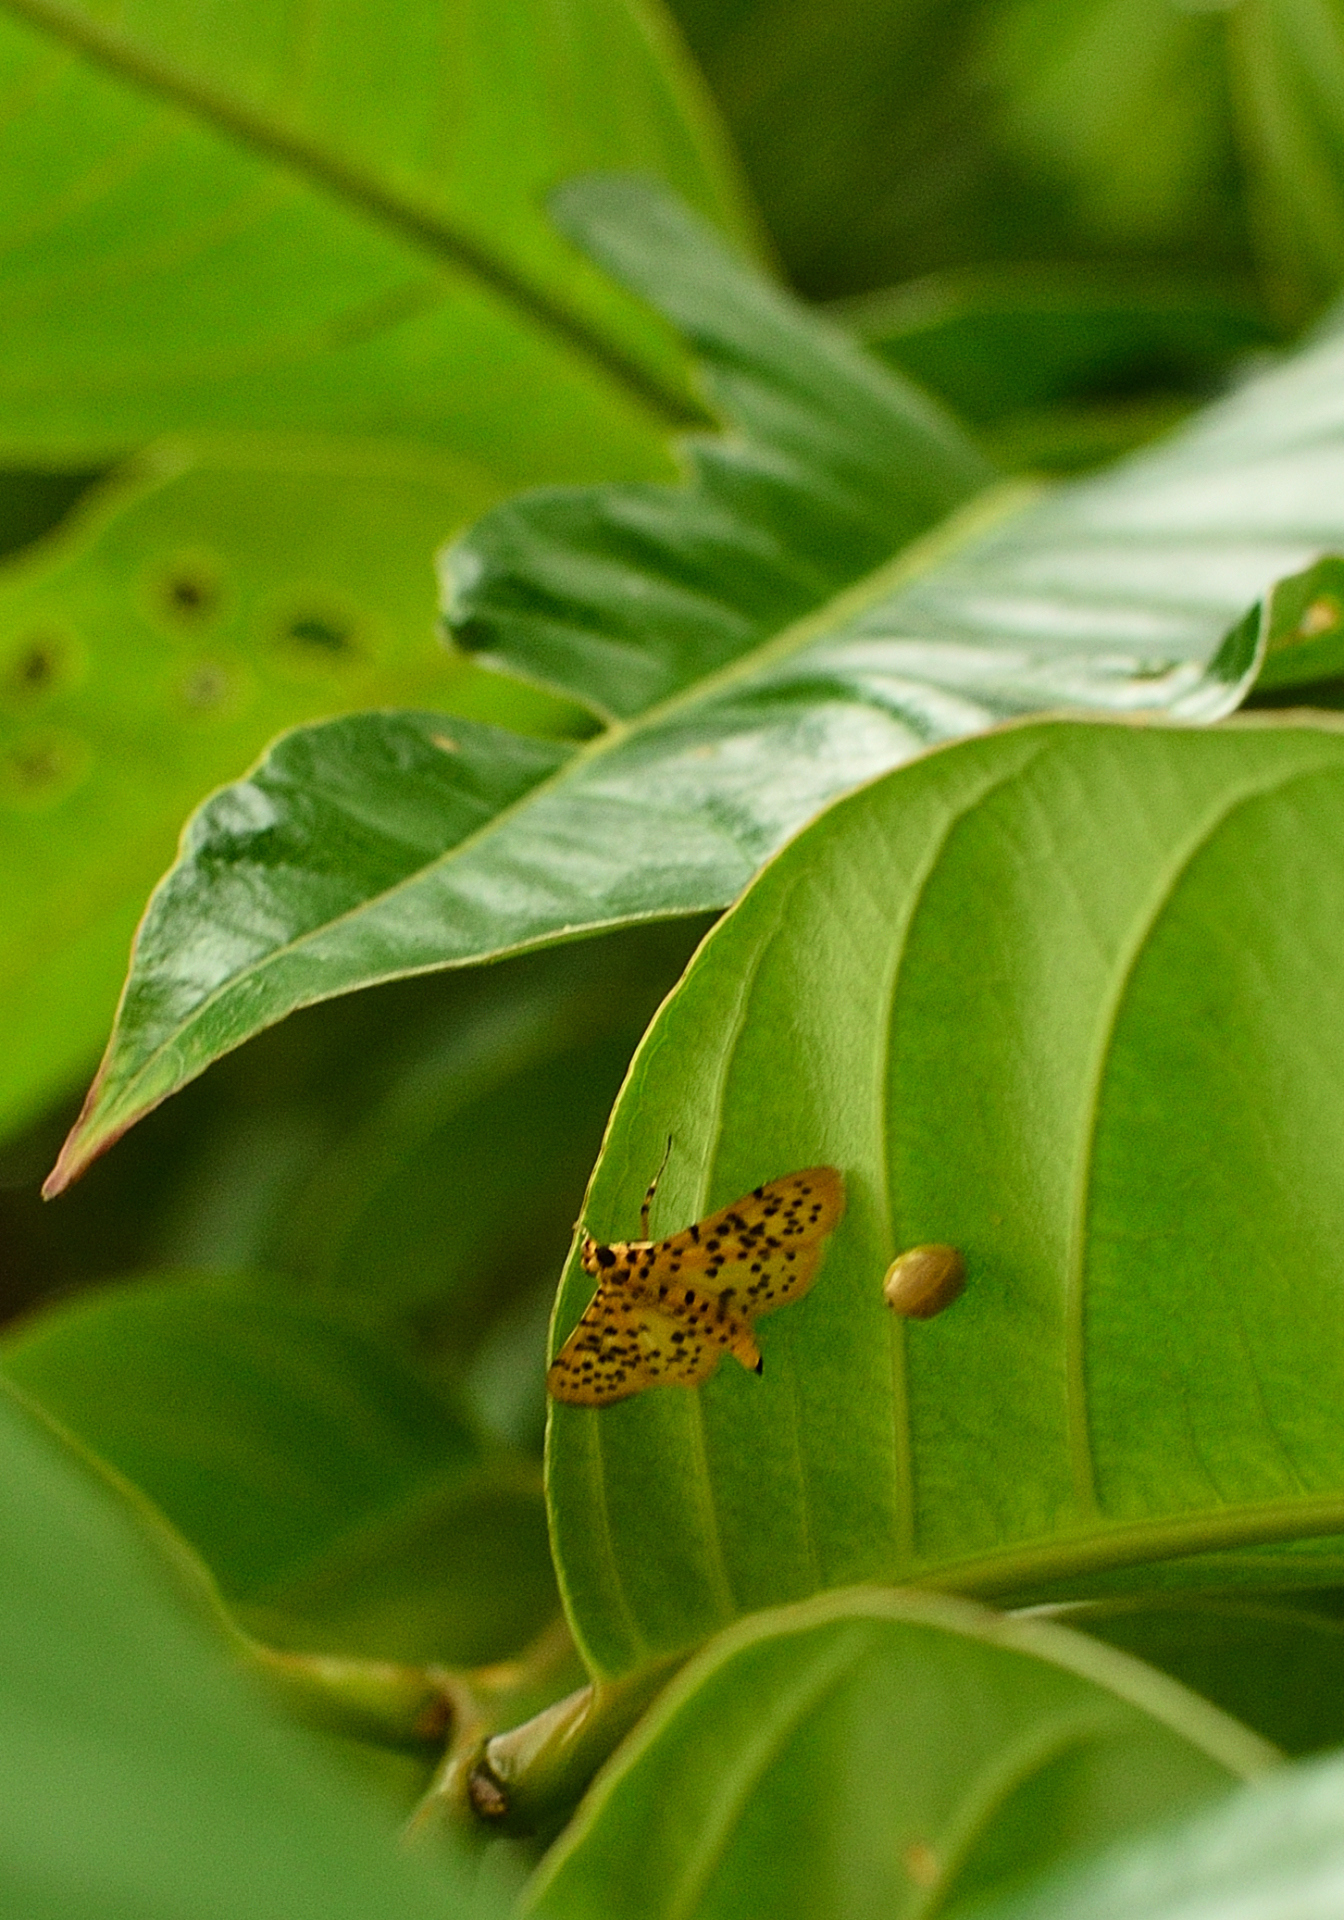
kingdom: Animalia
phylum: Arthropoda
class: Insecta
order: Lepidoptera
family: Crambidae
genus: Conogethes
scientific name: Conogethes punctiferalis
